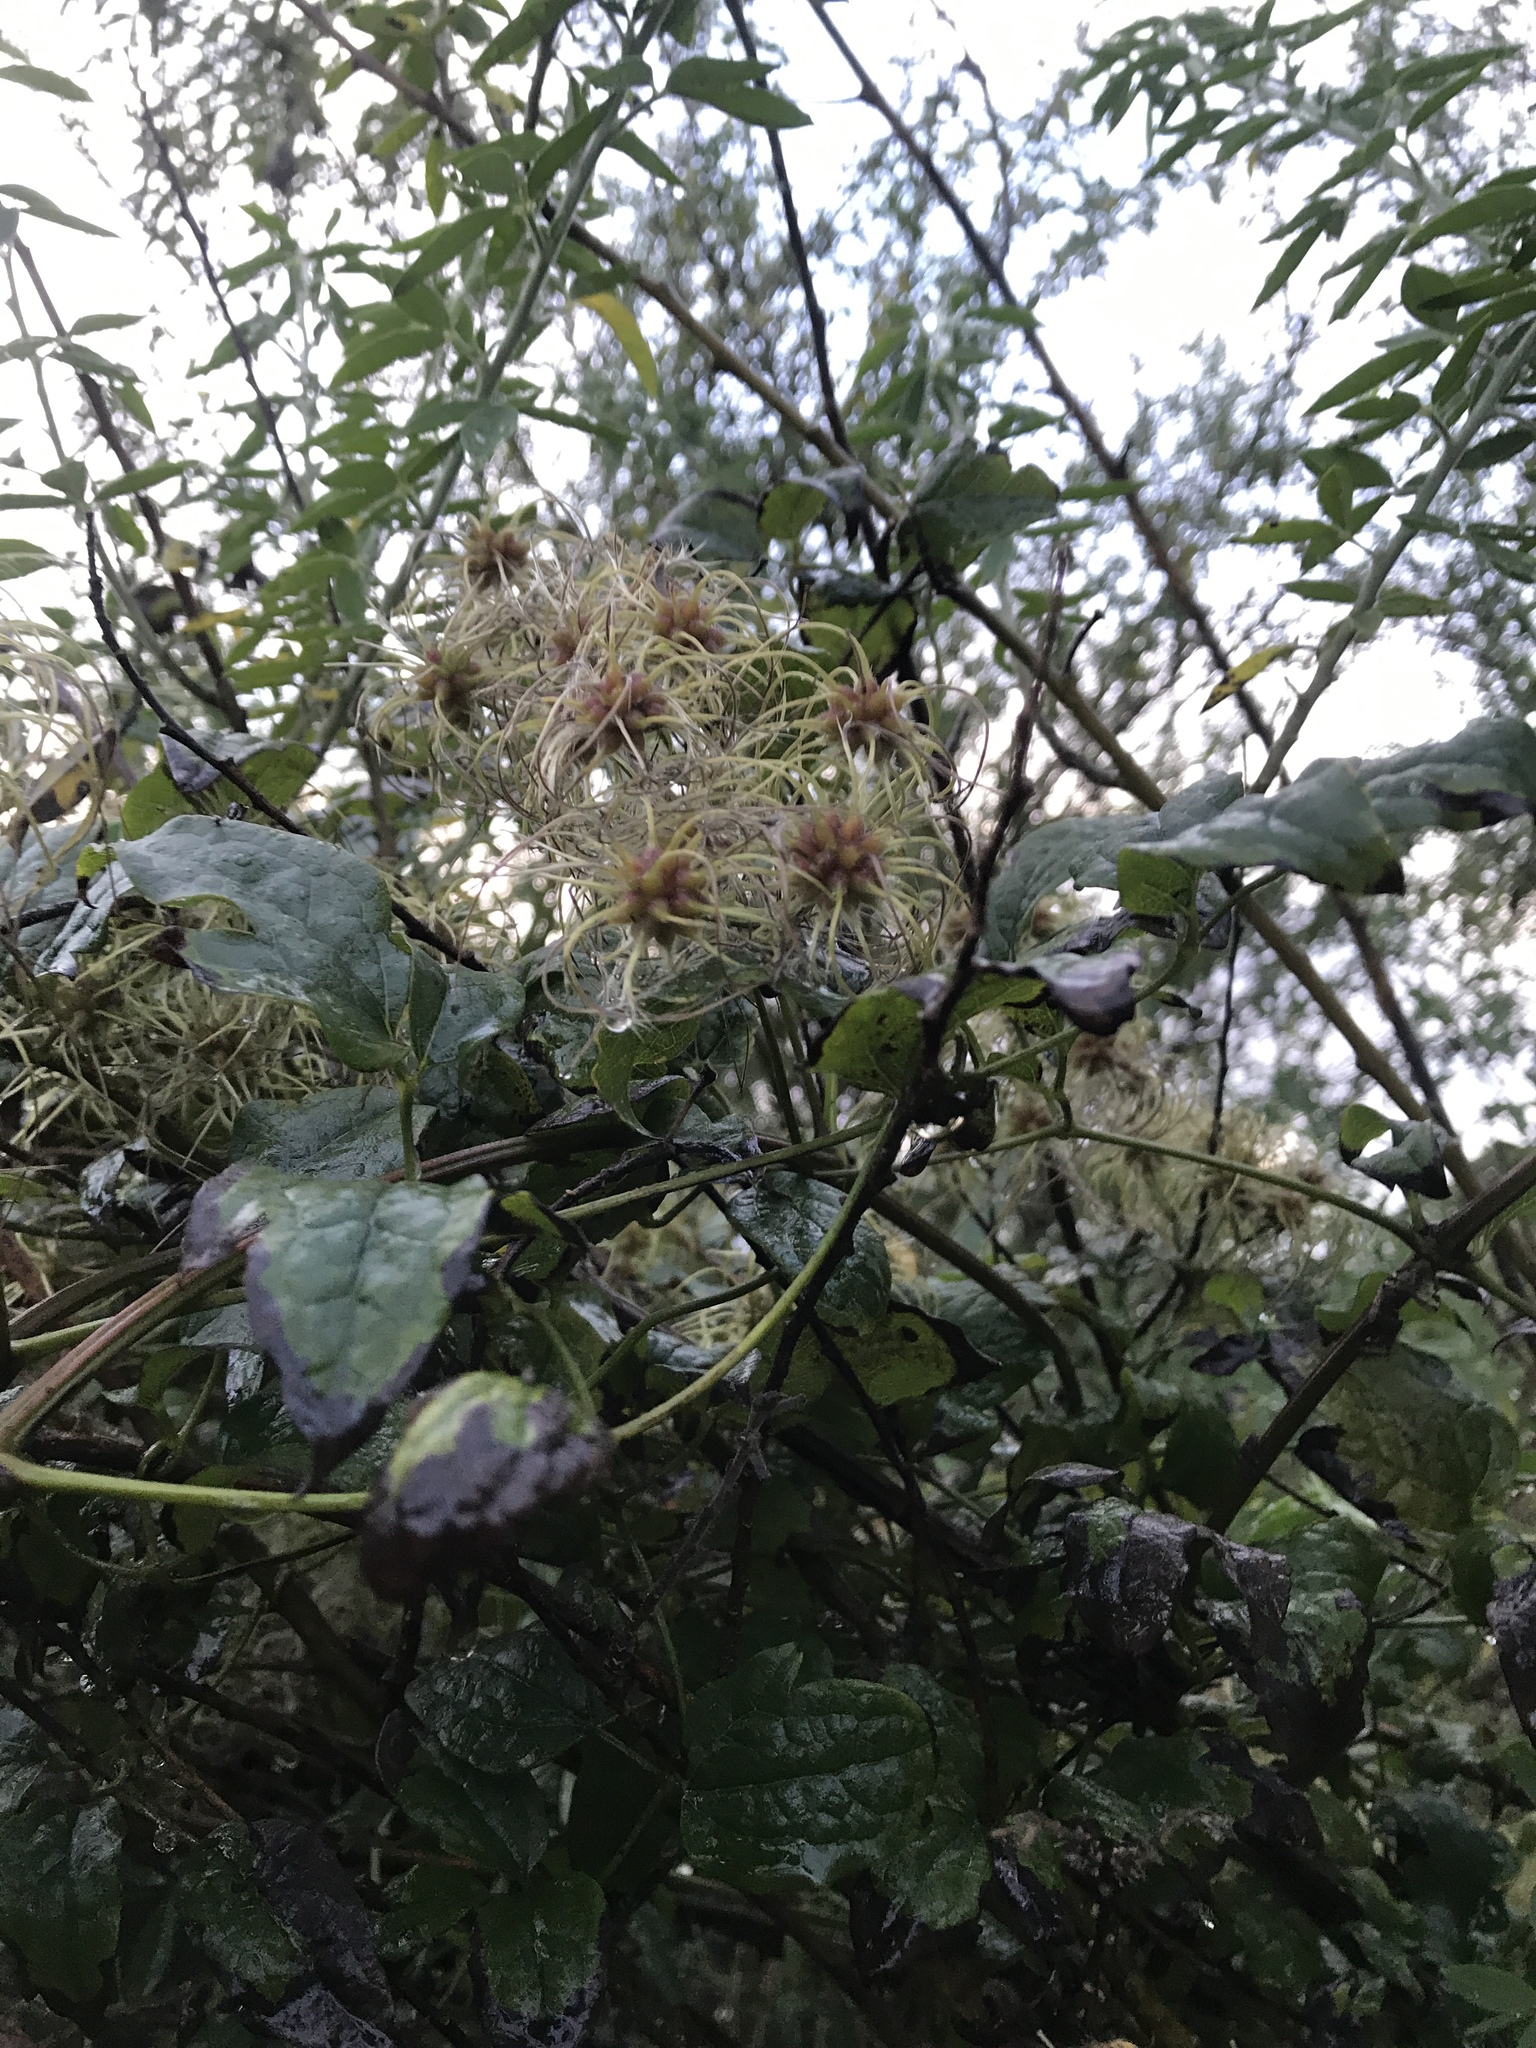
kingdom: Plantae
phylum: Tracheophyta
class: Magnoliopsida
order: Ranunculales
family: Ranunculaceae
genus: Clematis
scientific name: Clematis vitalba
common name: Evergreen clematis
